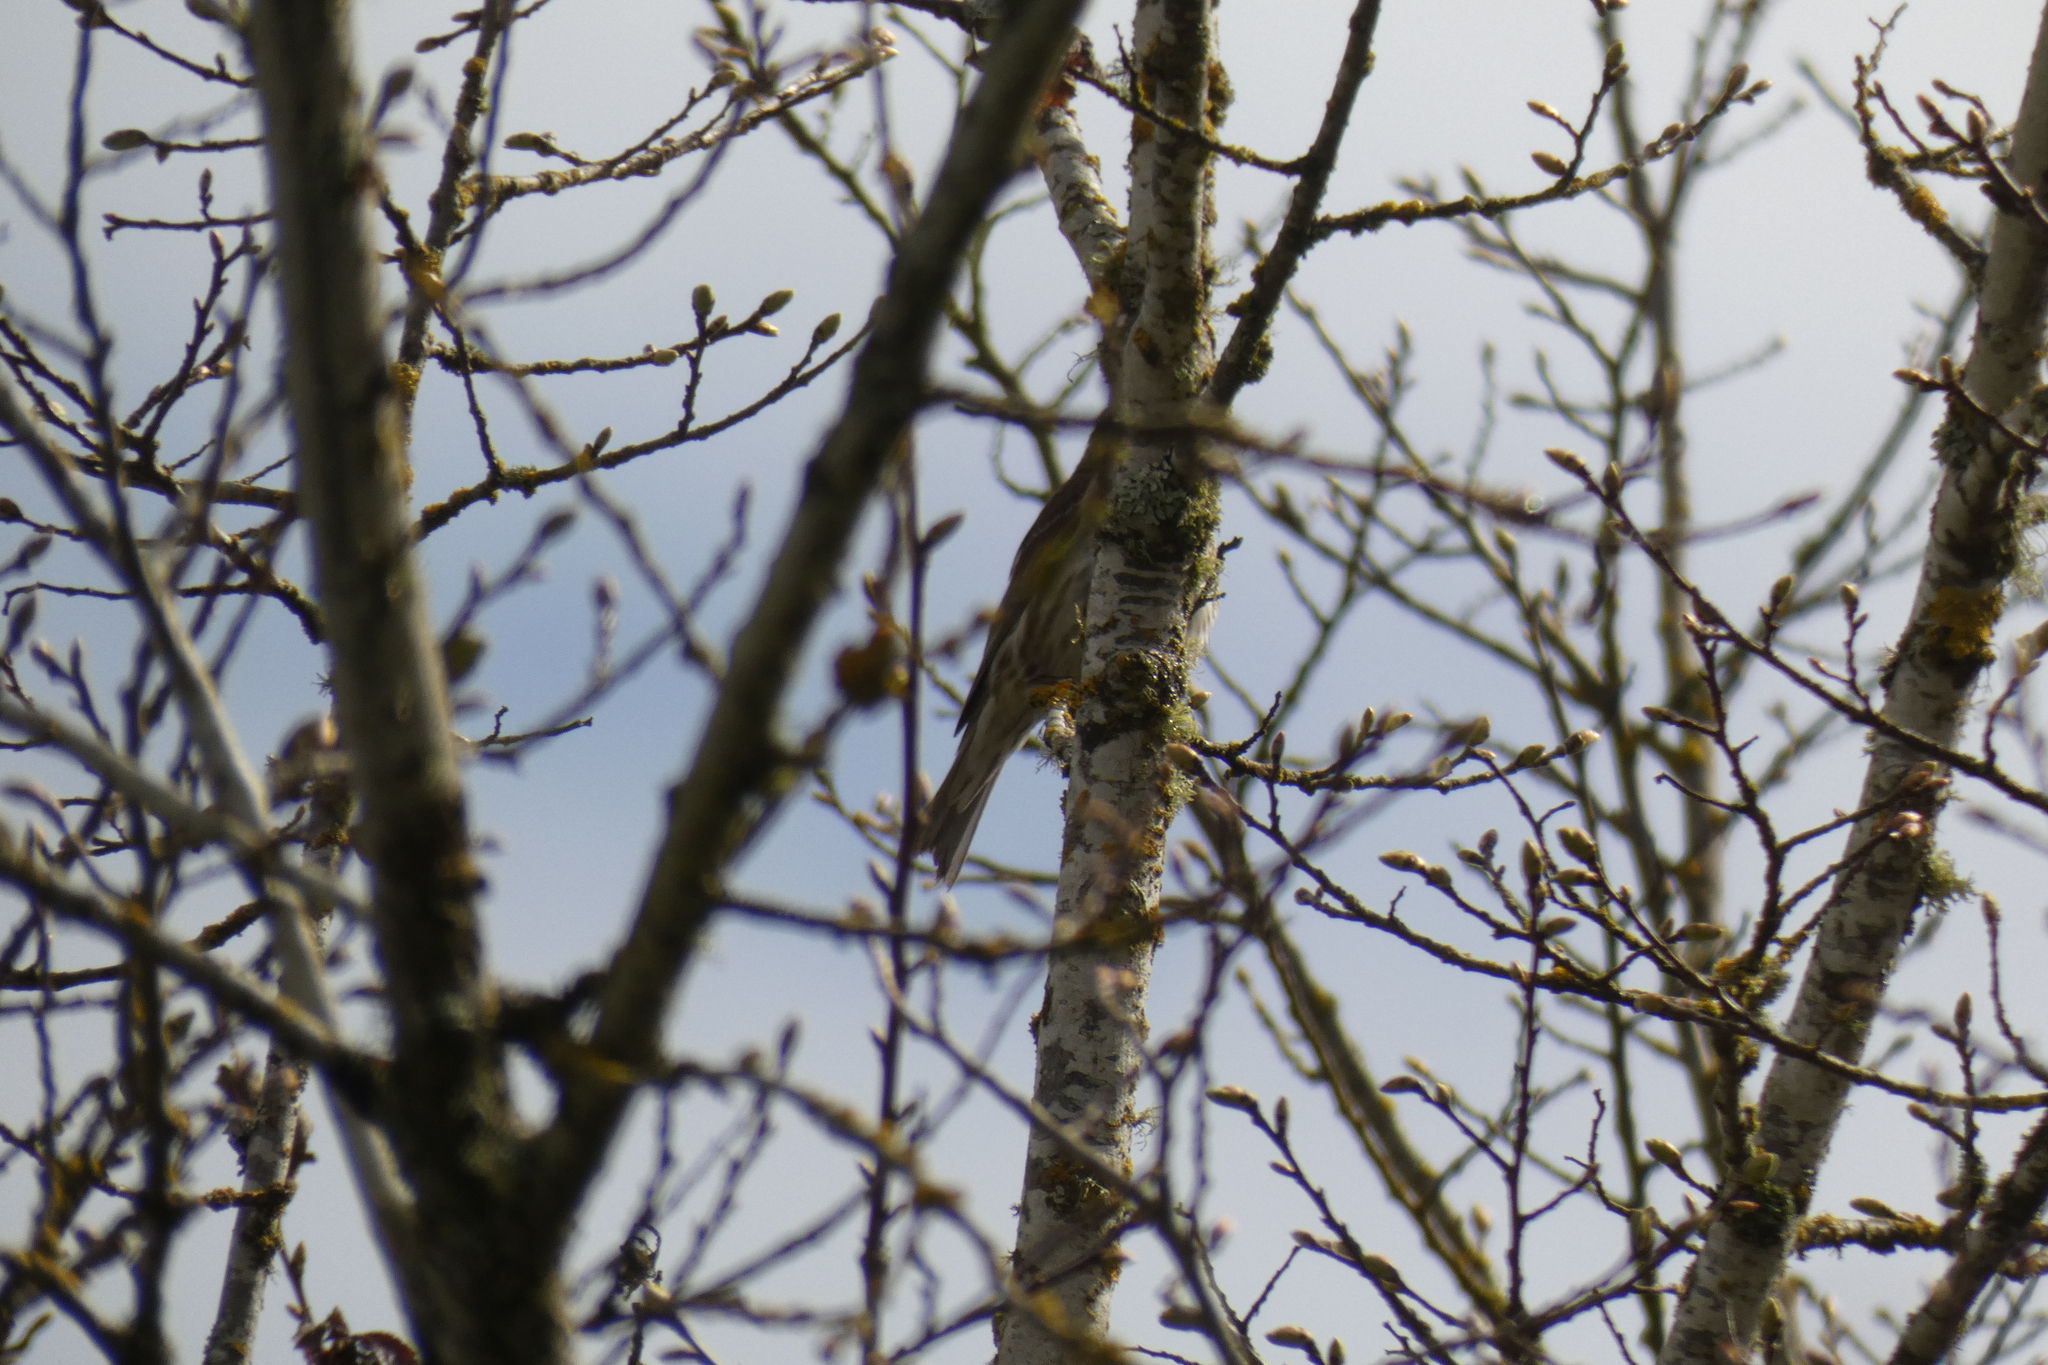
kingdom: Animalia
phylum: Chordata
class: Aves
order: Passeriformes
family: Fringillidae
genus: Haemorhous
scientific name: Haemorhous mexicanus
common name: House finch
